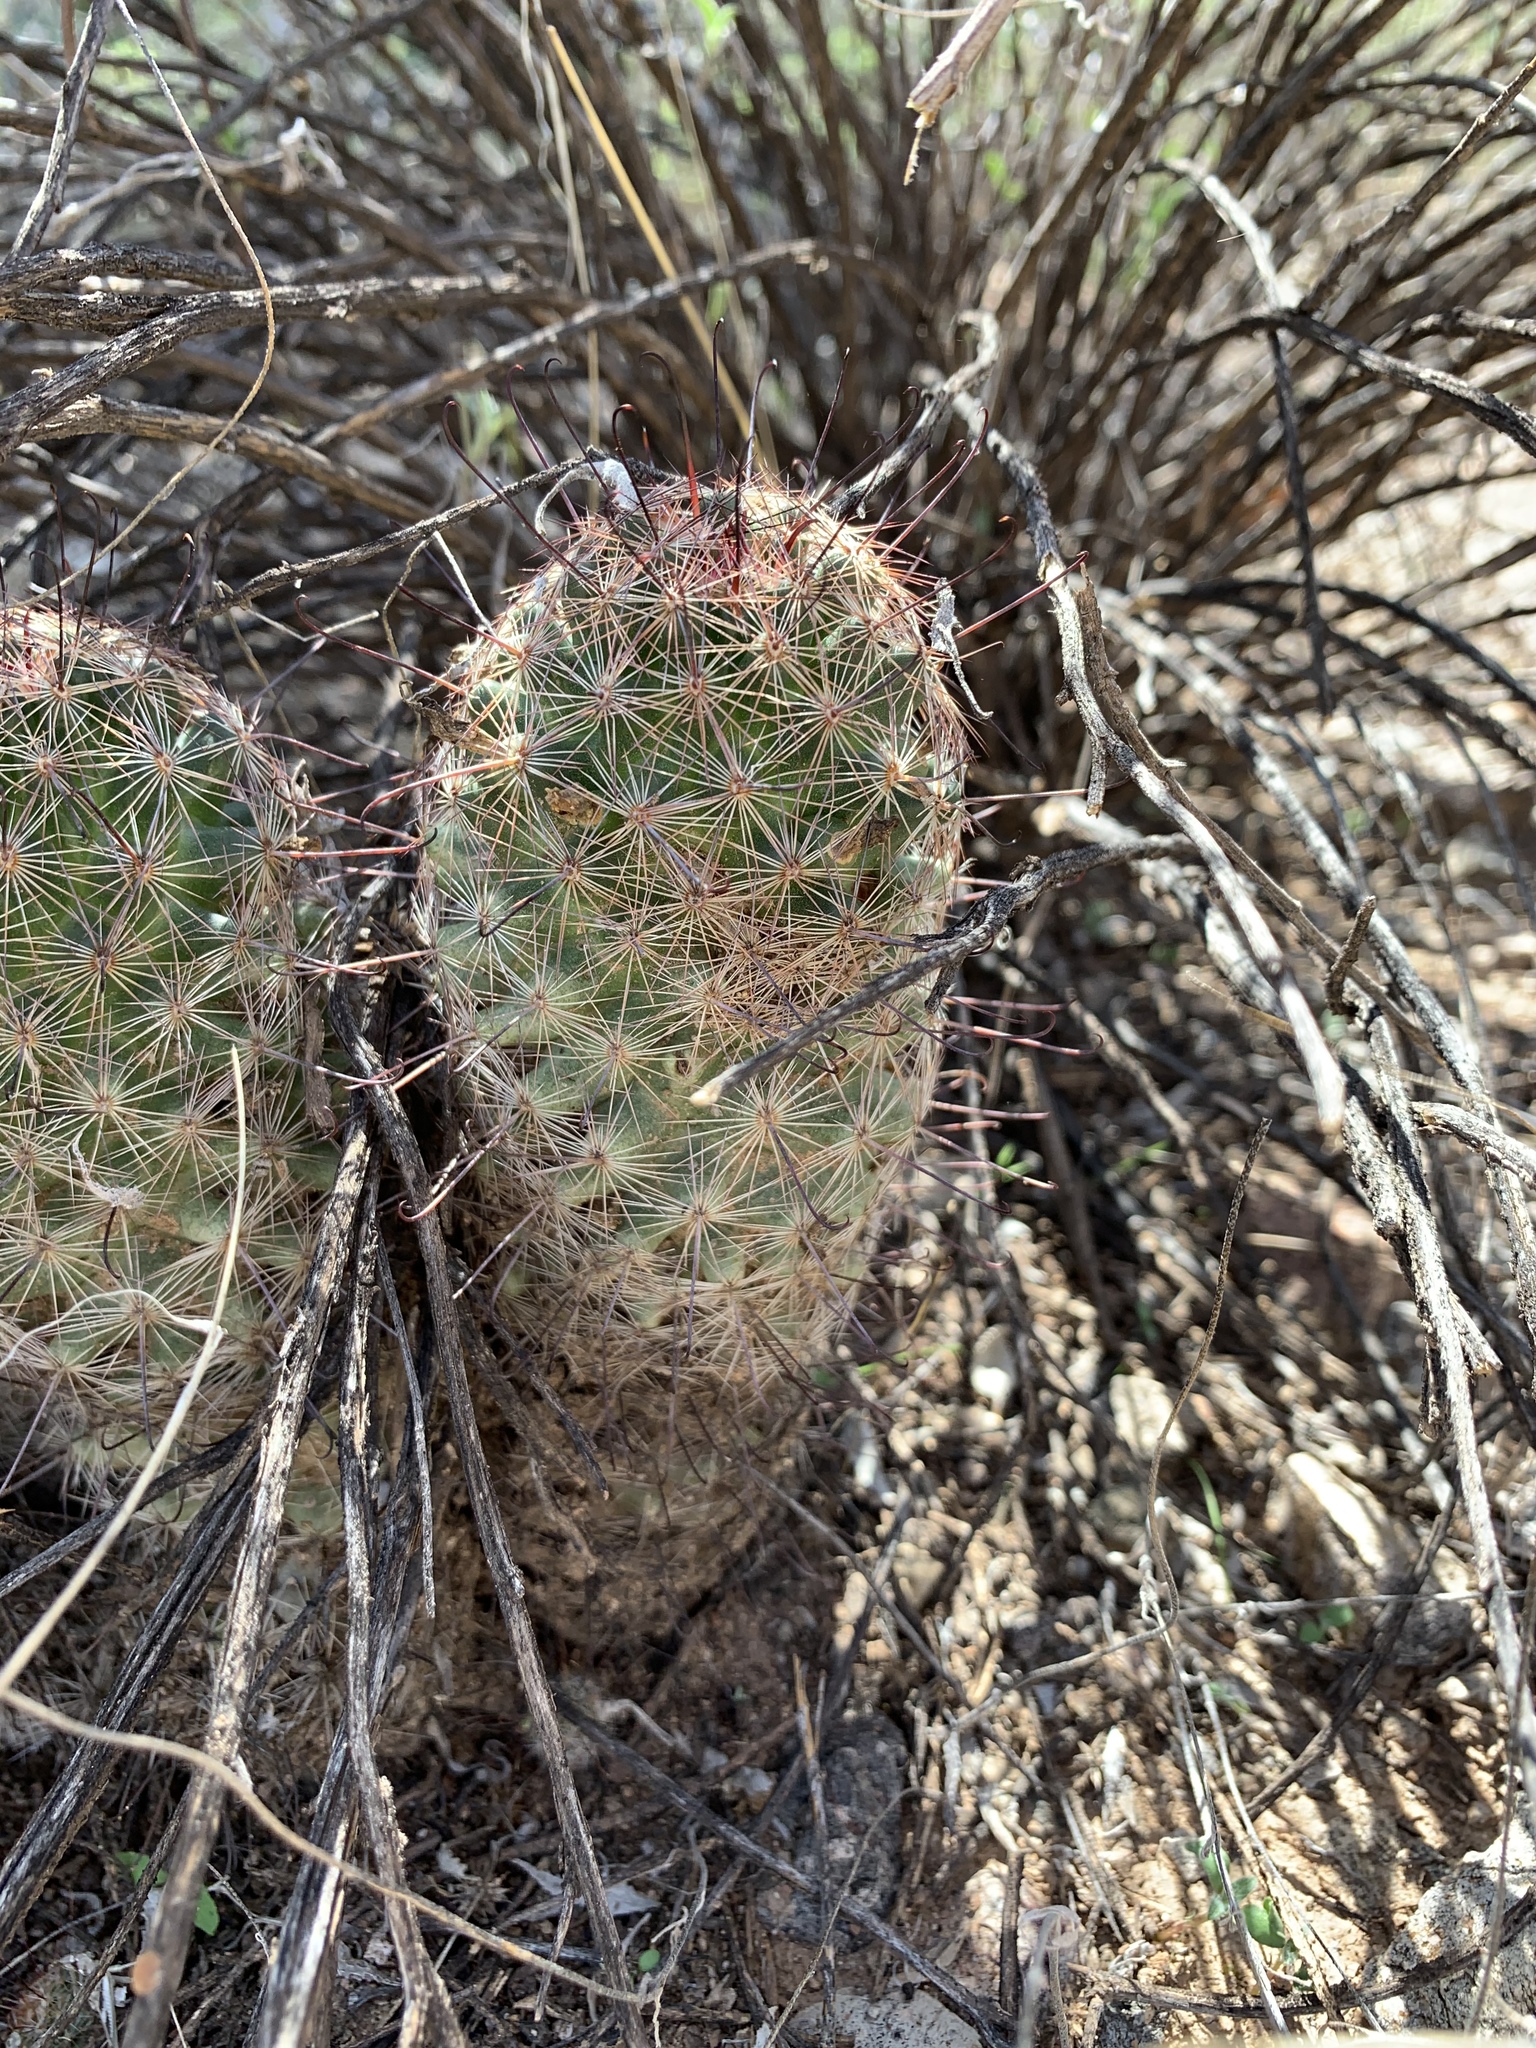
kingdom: Plantae
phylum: Tracheophyta
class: Magnoliopsida
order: Caryophyllales
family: Cactaceae
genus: Cochemiea
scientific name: Cochemiea grahamii
